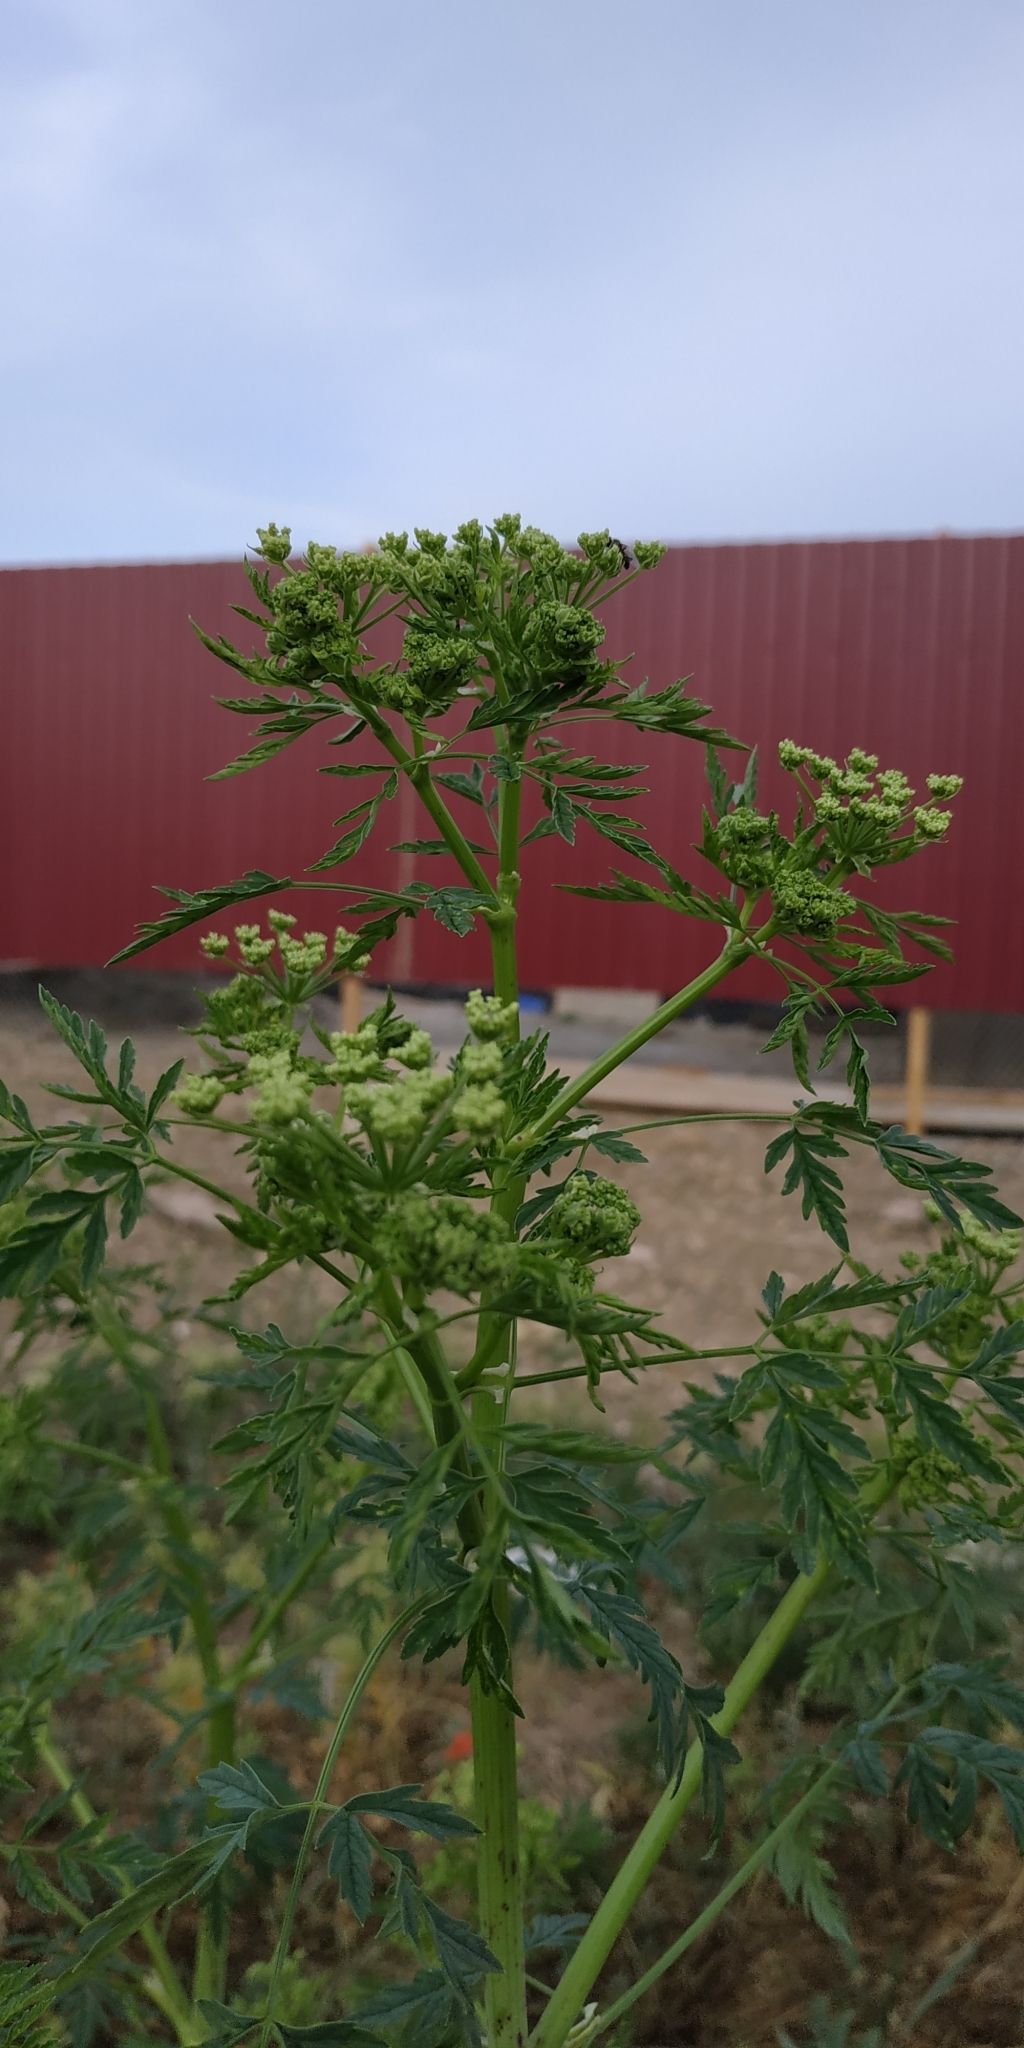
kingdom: Plantae
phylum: Tracheophyta
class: Magnoliopsida
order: Apiales
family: Apiaceae
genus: Conium
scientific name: Conium maculatum
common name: Hemlock
